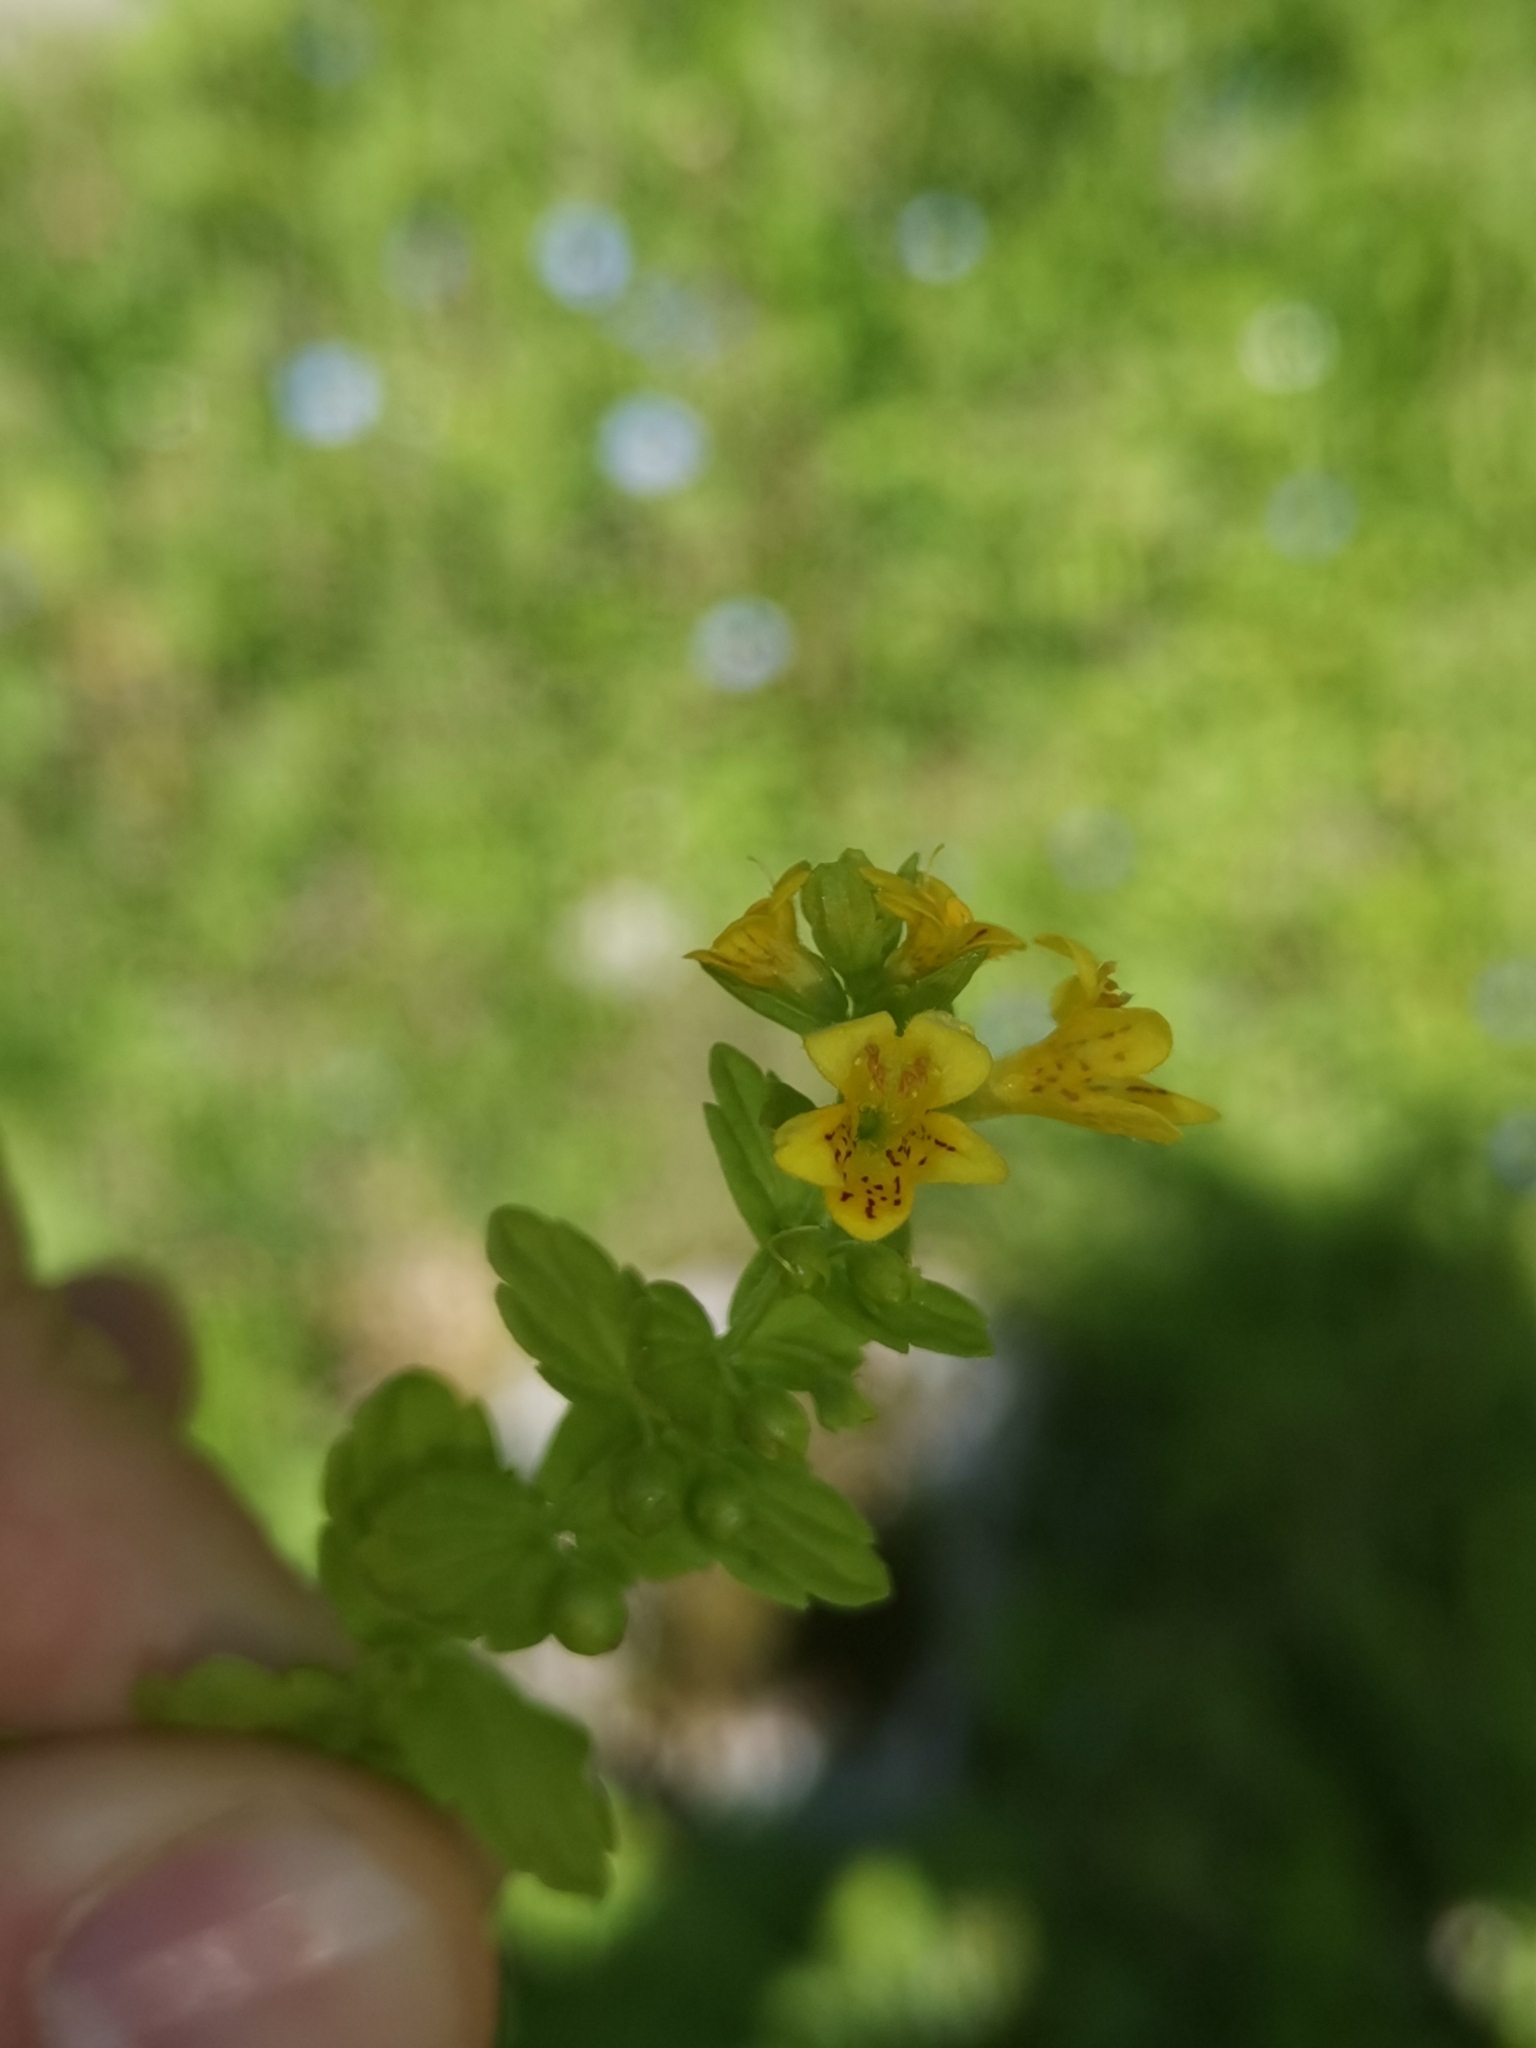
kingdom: Plantae
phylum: Tracheophyta
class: Magnoliopsida
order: Lamiales
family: Orobanchaceae
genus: Tozzia
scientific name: Tozzia alpina
